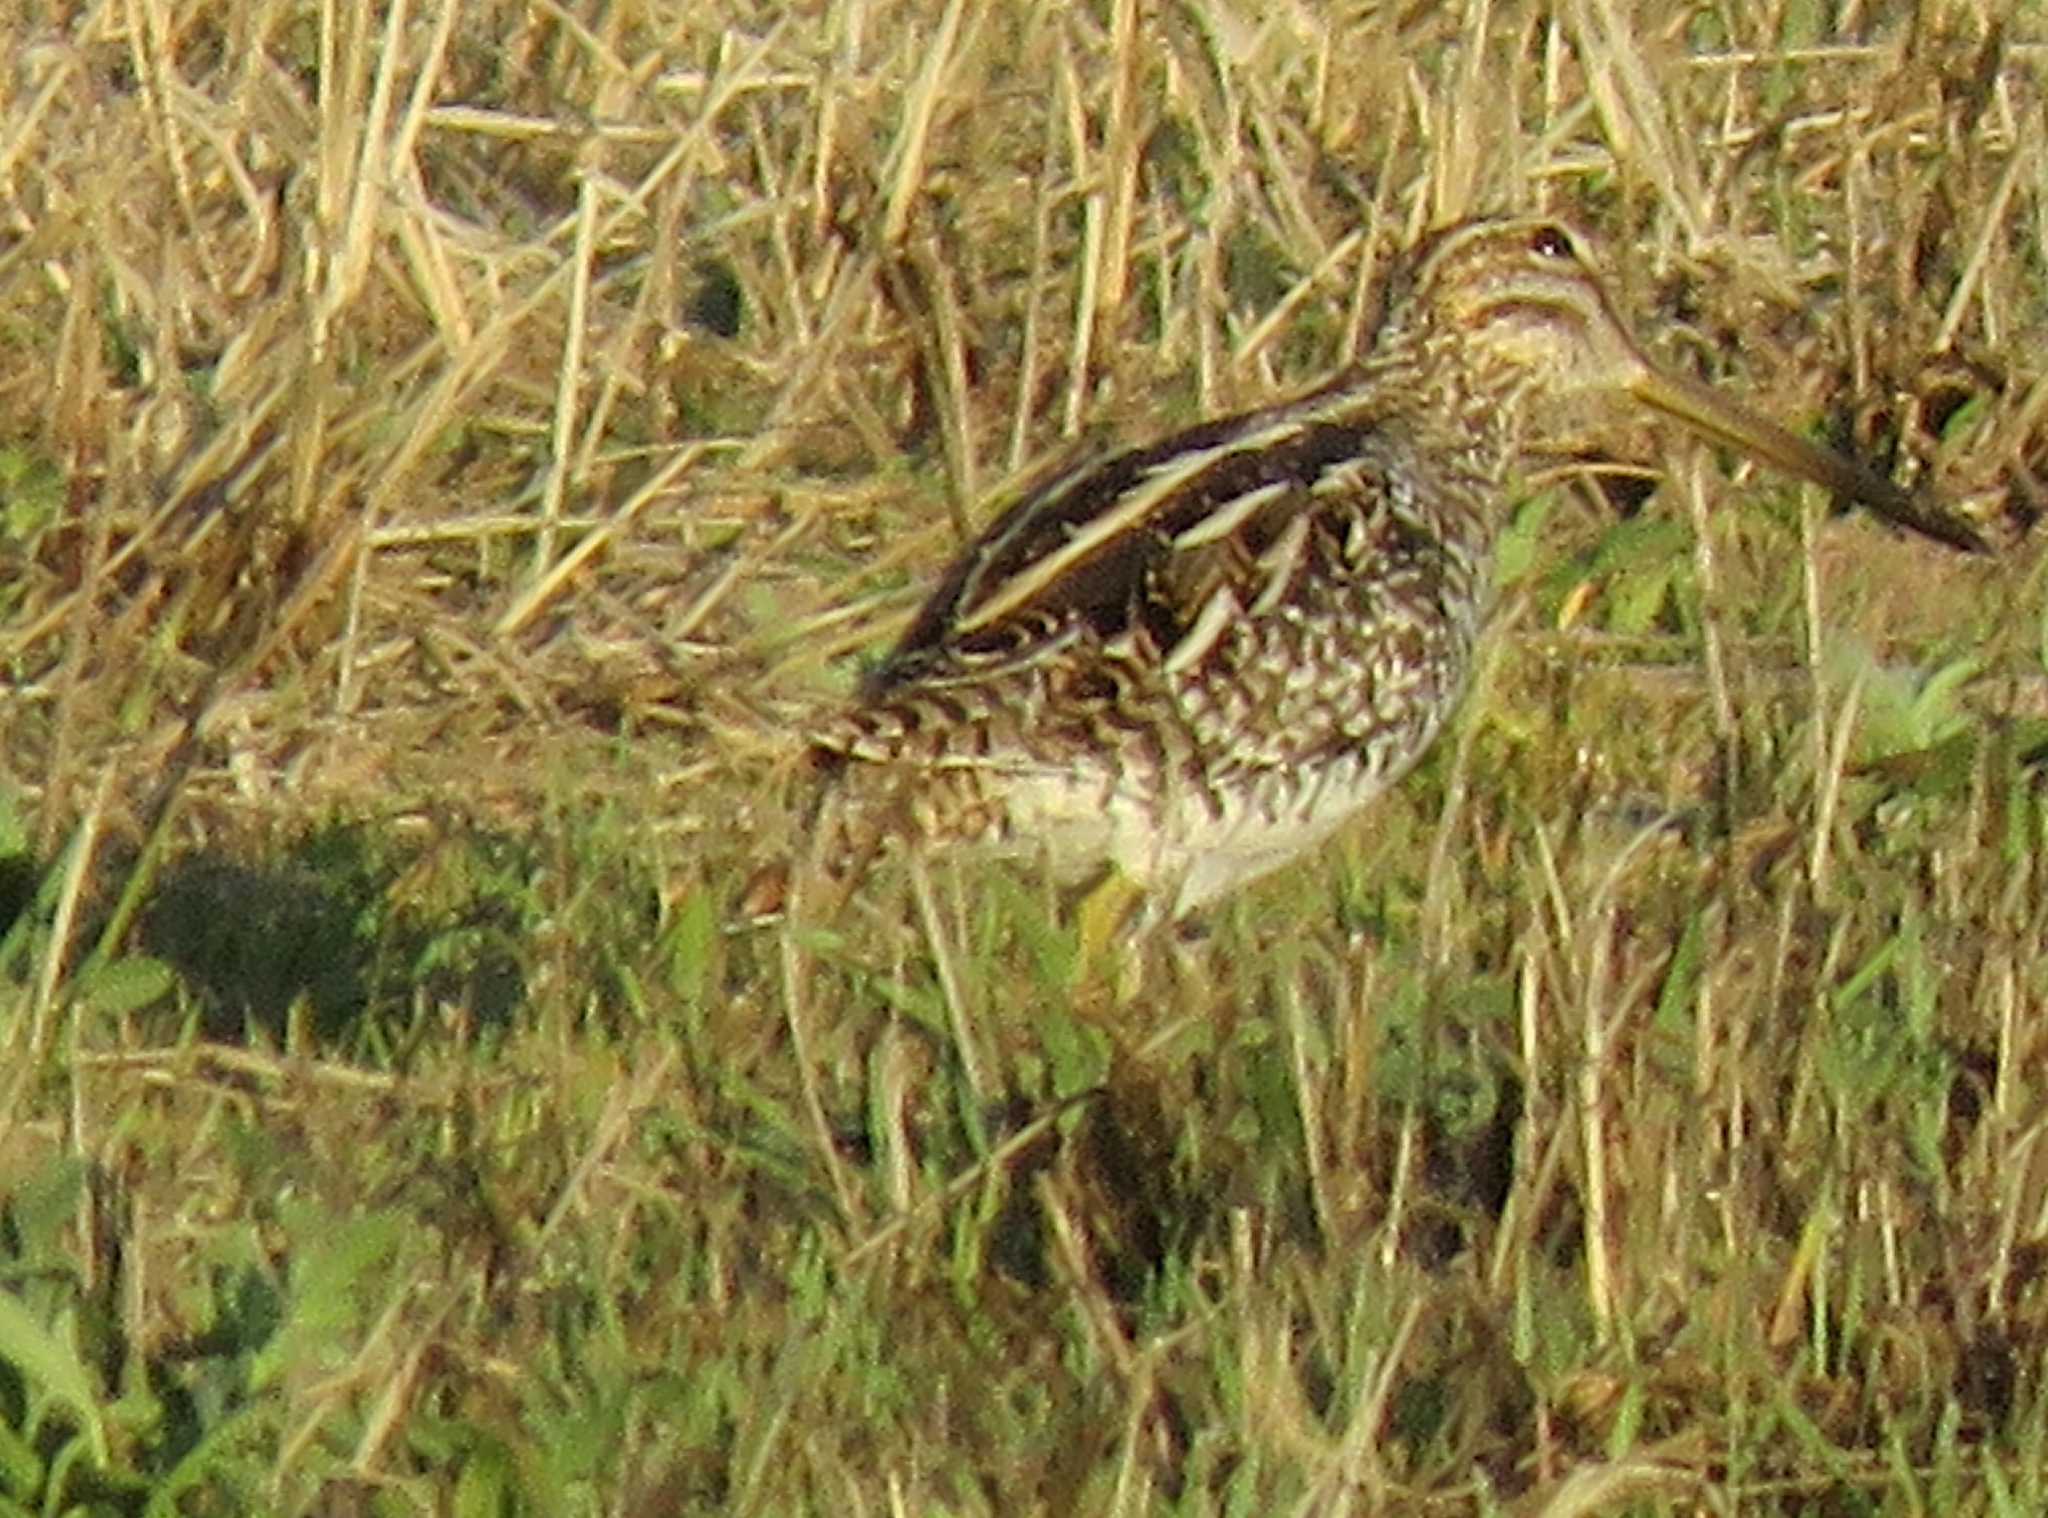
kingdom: Animalia
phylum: Chordata
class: Aves
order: Charadriiformes
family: Scolopacidae
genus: Gallinago
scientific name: Gallinago delicata
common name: Wilson's snipe
